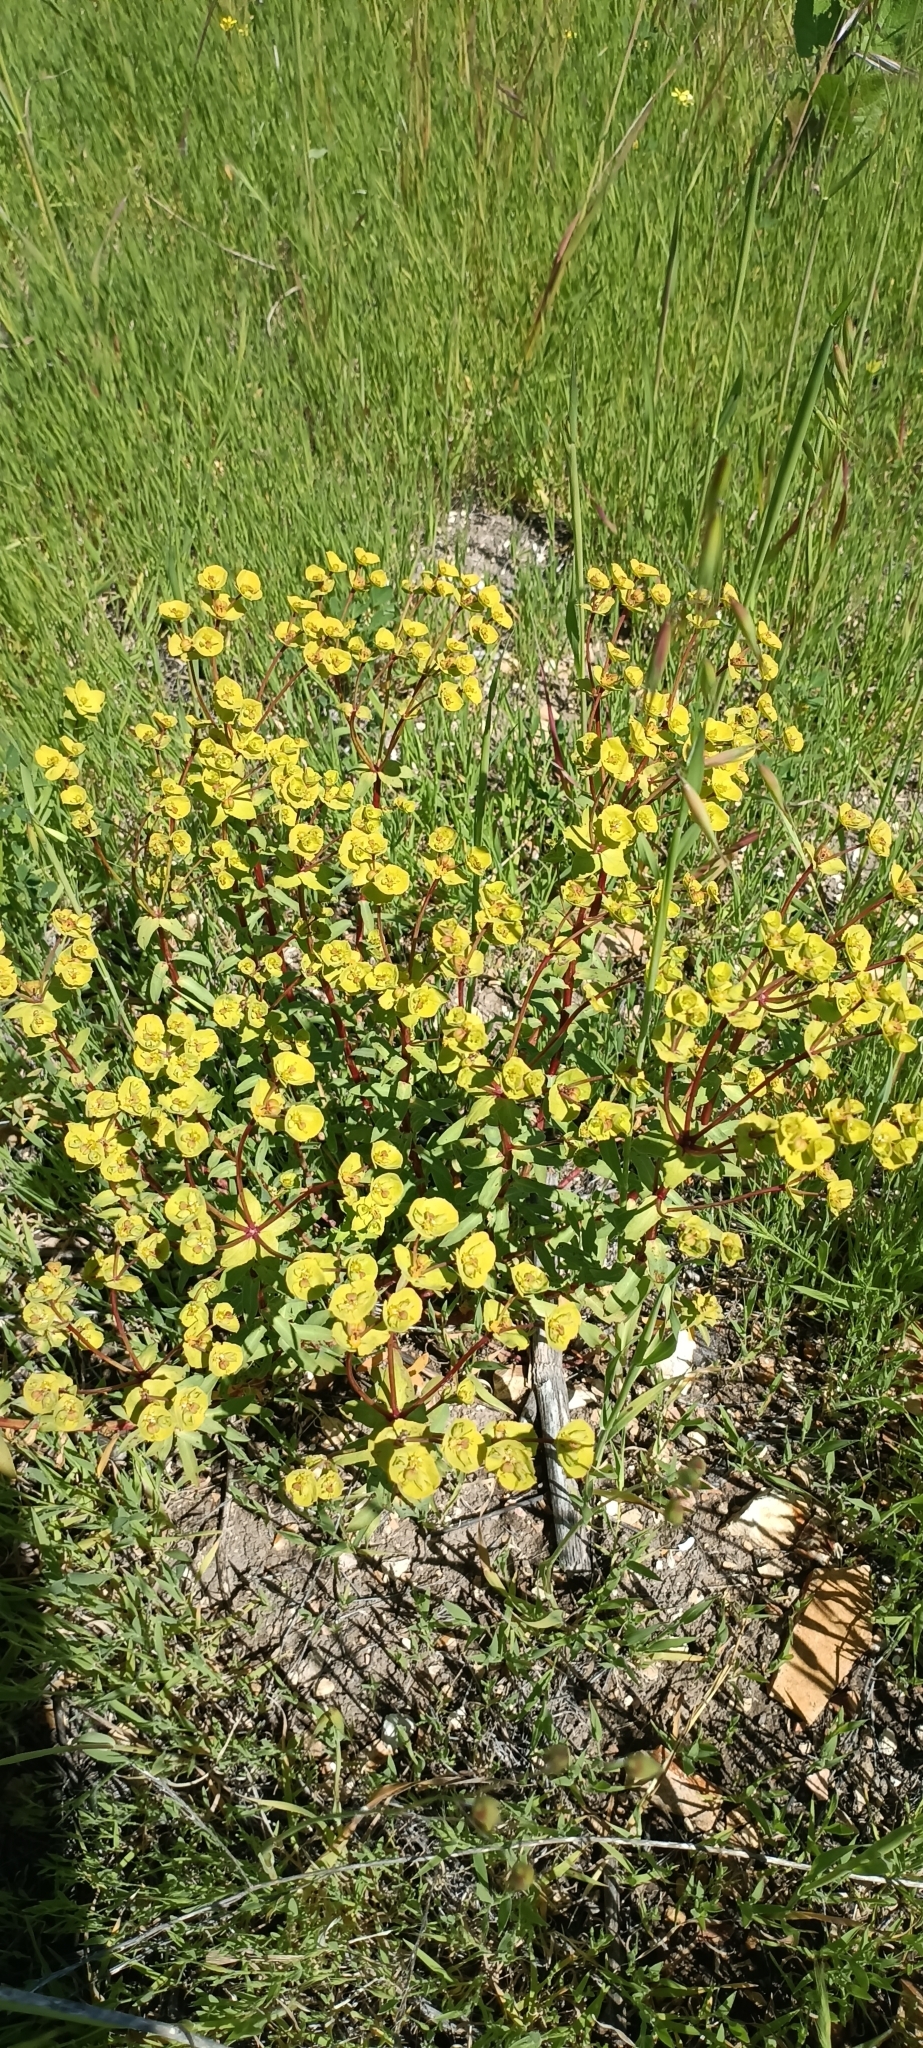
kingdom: Plantae
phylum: Tracheophyta
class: Magnoliopsida
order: Malpighiales
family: Euphorbiaceae
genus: Euphorbia
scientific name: Euphorbia terracina
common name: Geraldton carnation weed
